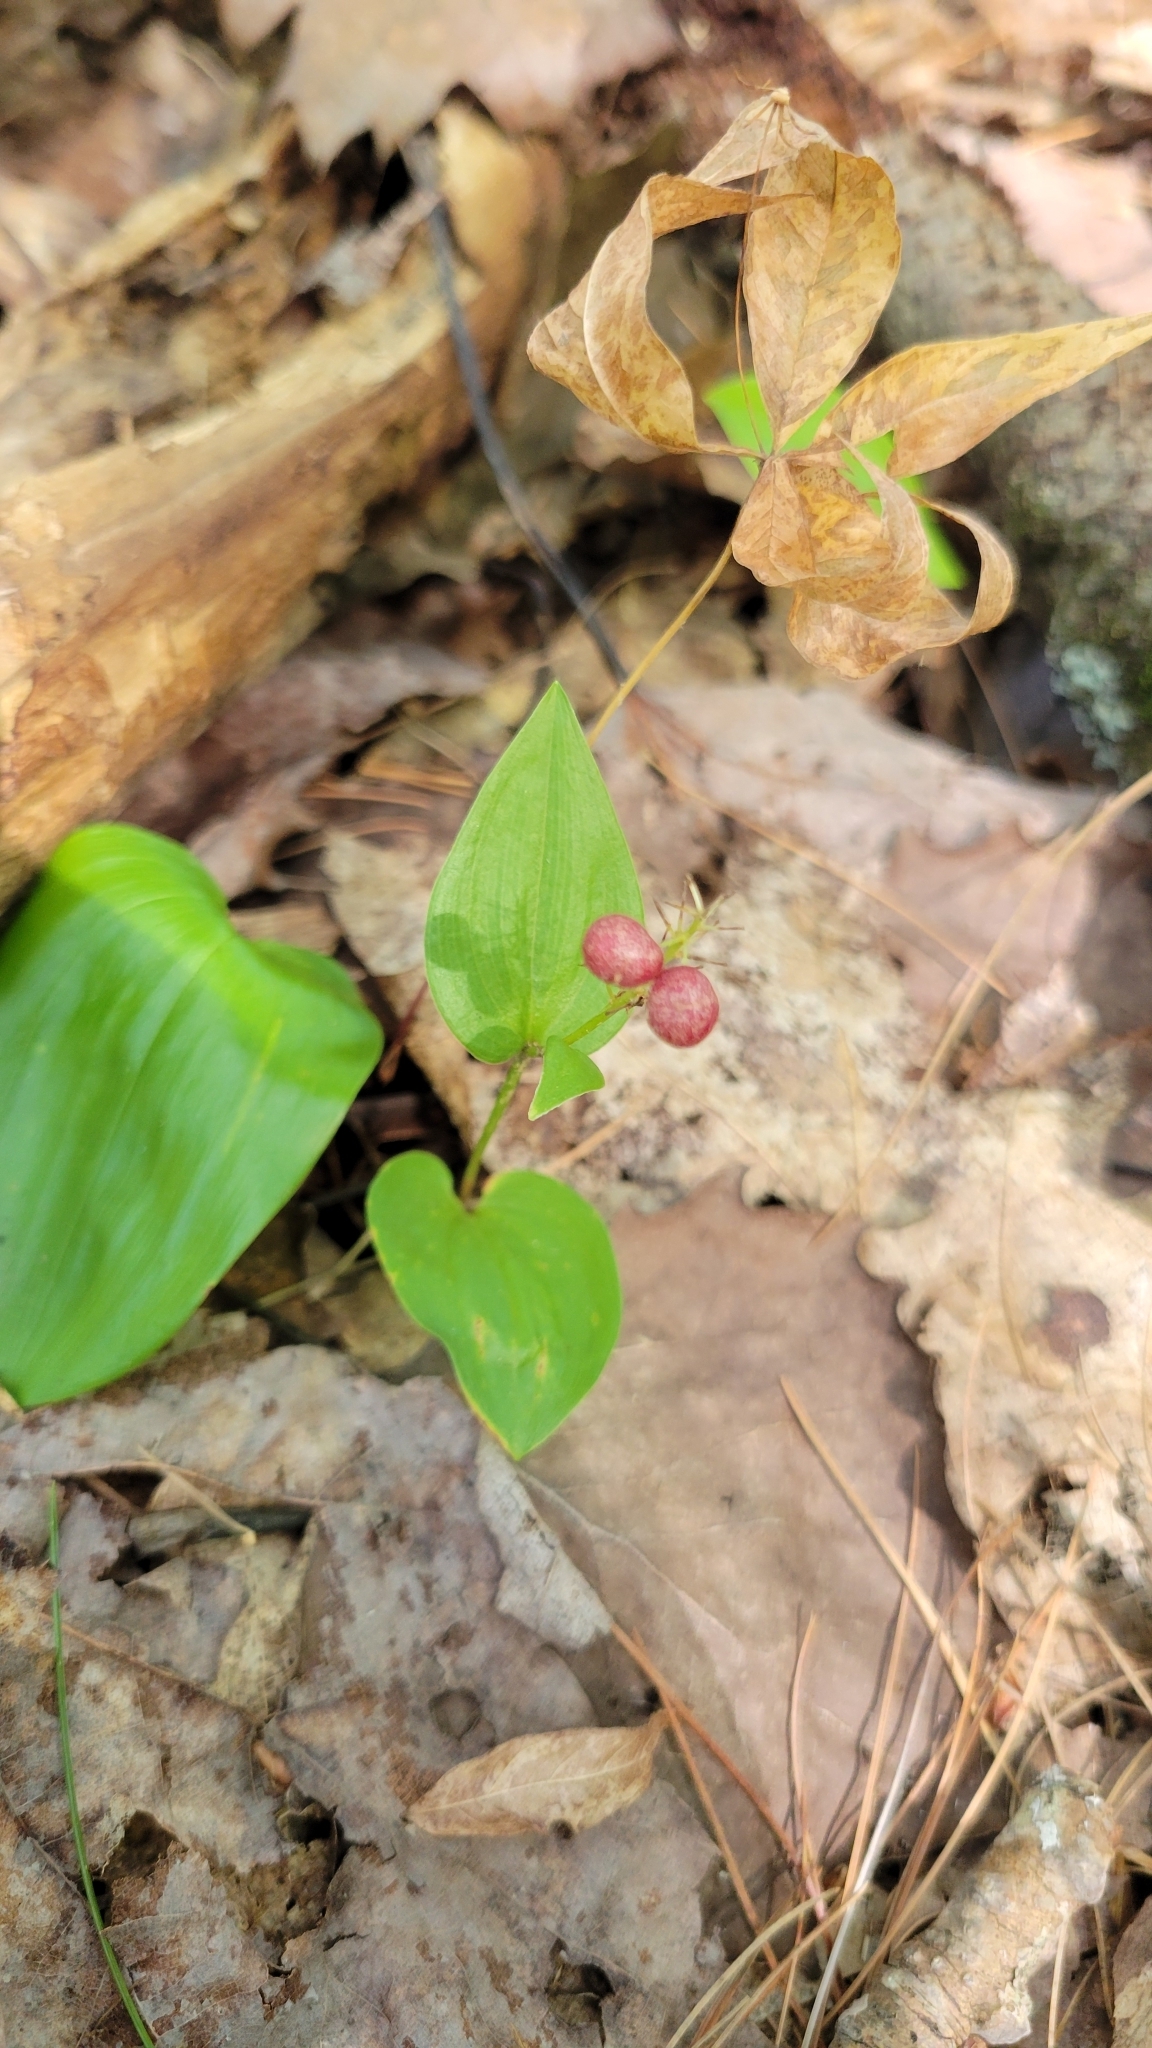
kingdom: Plantae
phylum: Tracheophyta
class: Liliopsida
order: Asparagales
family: Asparagaceae
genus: Maianthemum
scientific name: Maianthemum canadense
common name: False lily-of-the-valley
